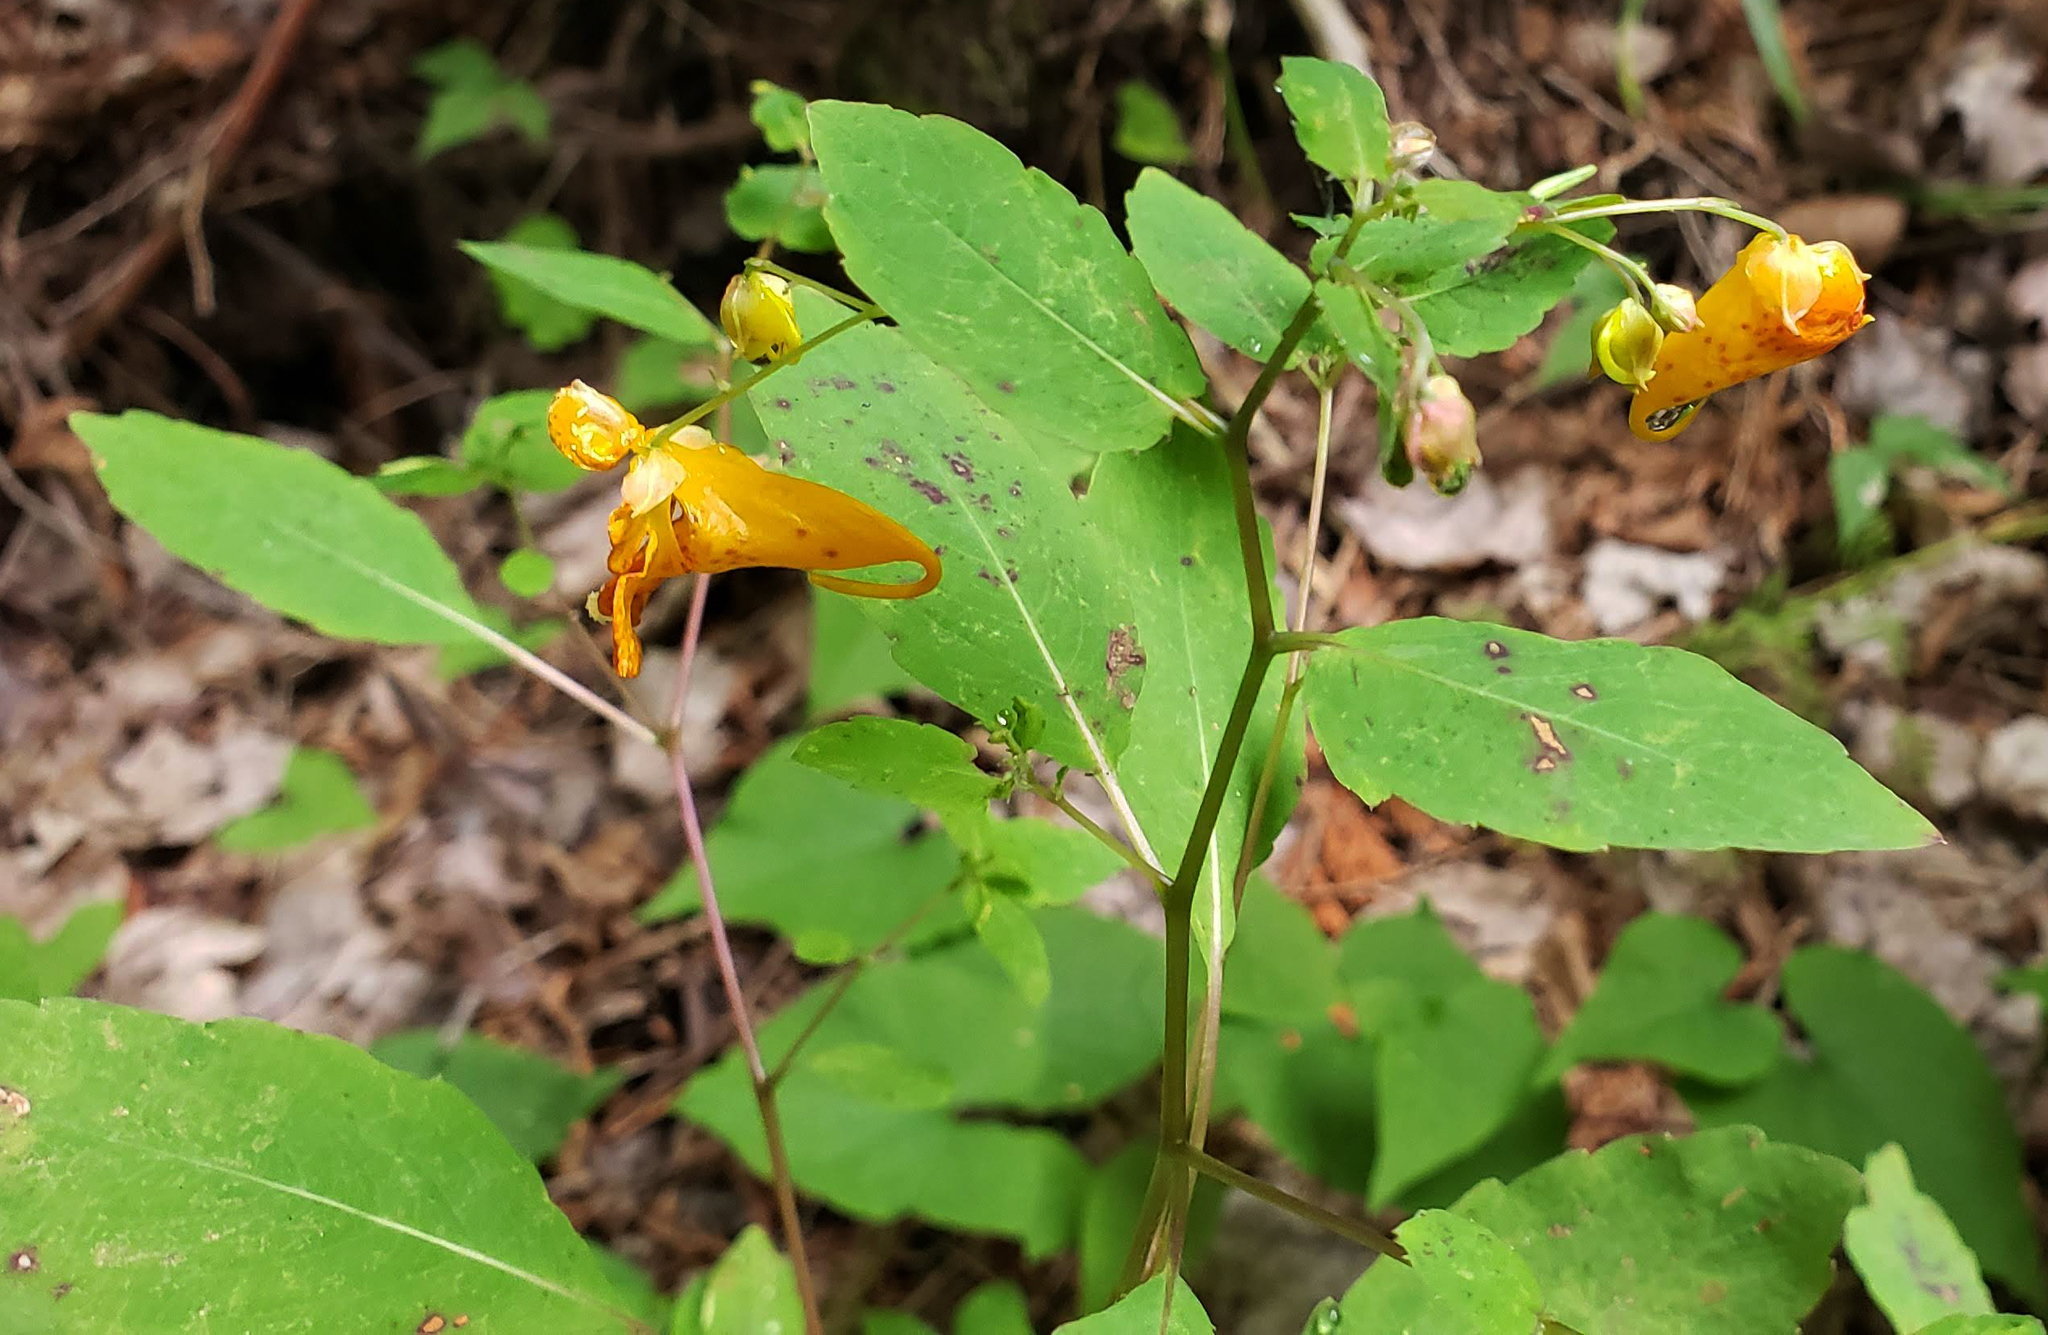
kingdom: Plantae
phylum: Tracheophyta
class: Magnoliopsida
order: Ericales
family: Balsaminaceae
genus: Impatiens
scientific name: Impatiens capensis
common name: Orange balsam
